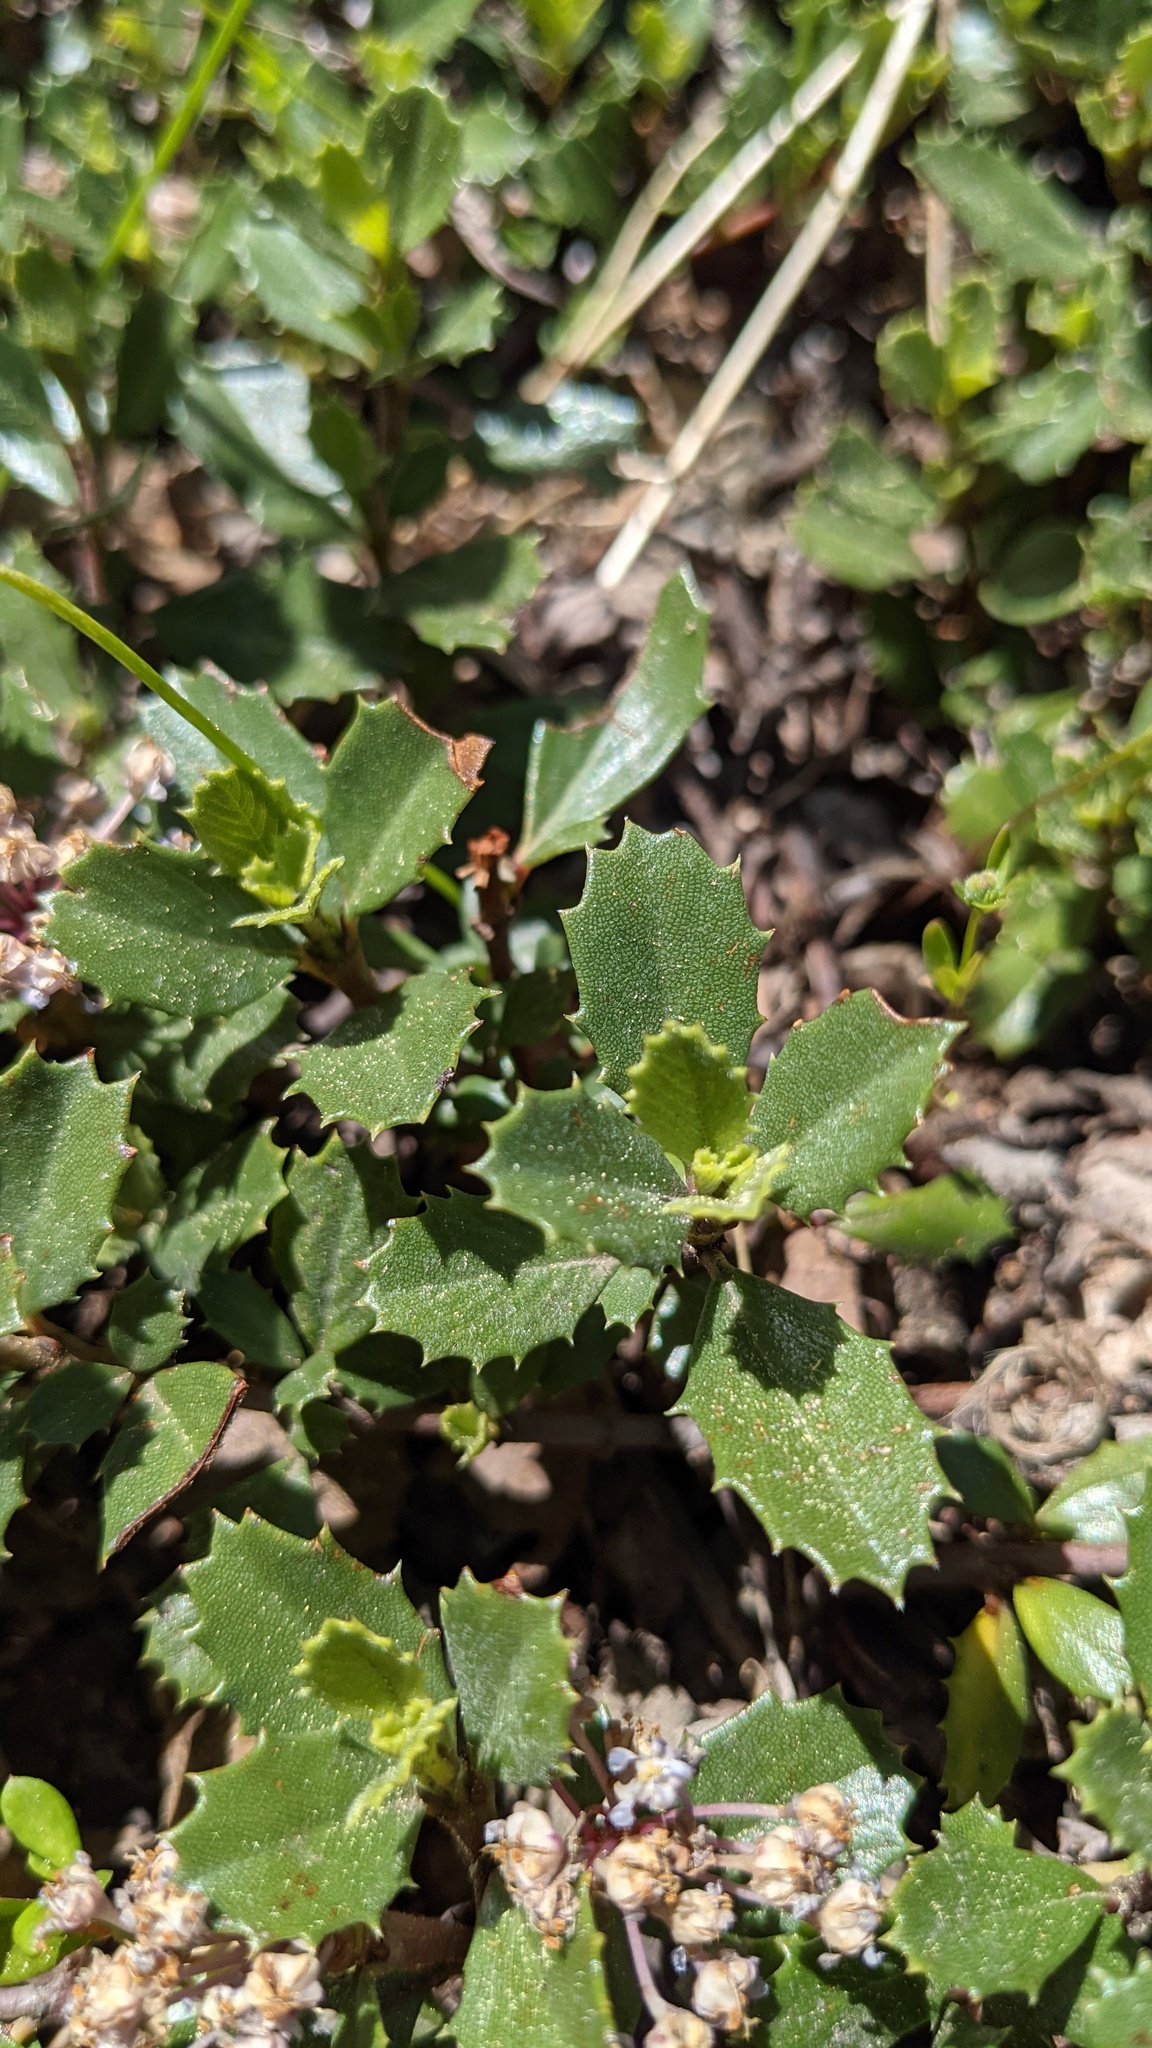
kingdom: Plantae
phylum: Tracheophyta
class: Magnoliopsida
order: Rosales
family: Rhamnaceae
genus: Ceanothus
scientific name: Ceanothus prostratus
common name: Mahala-mat
